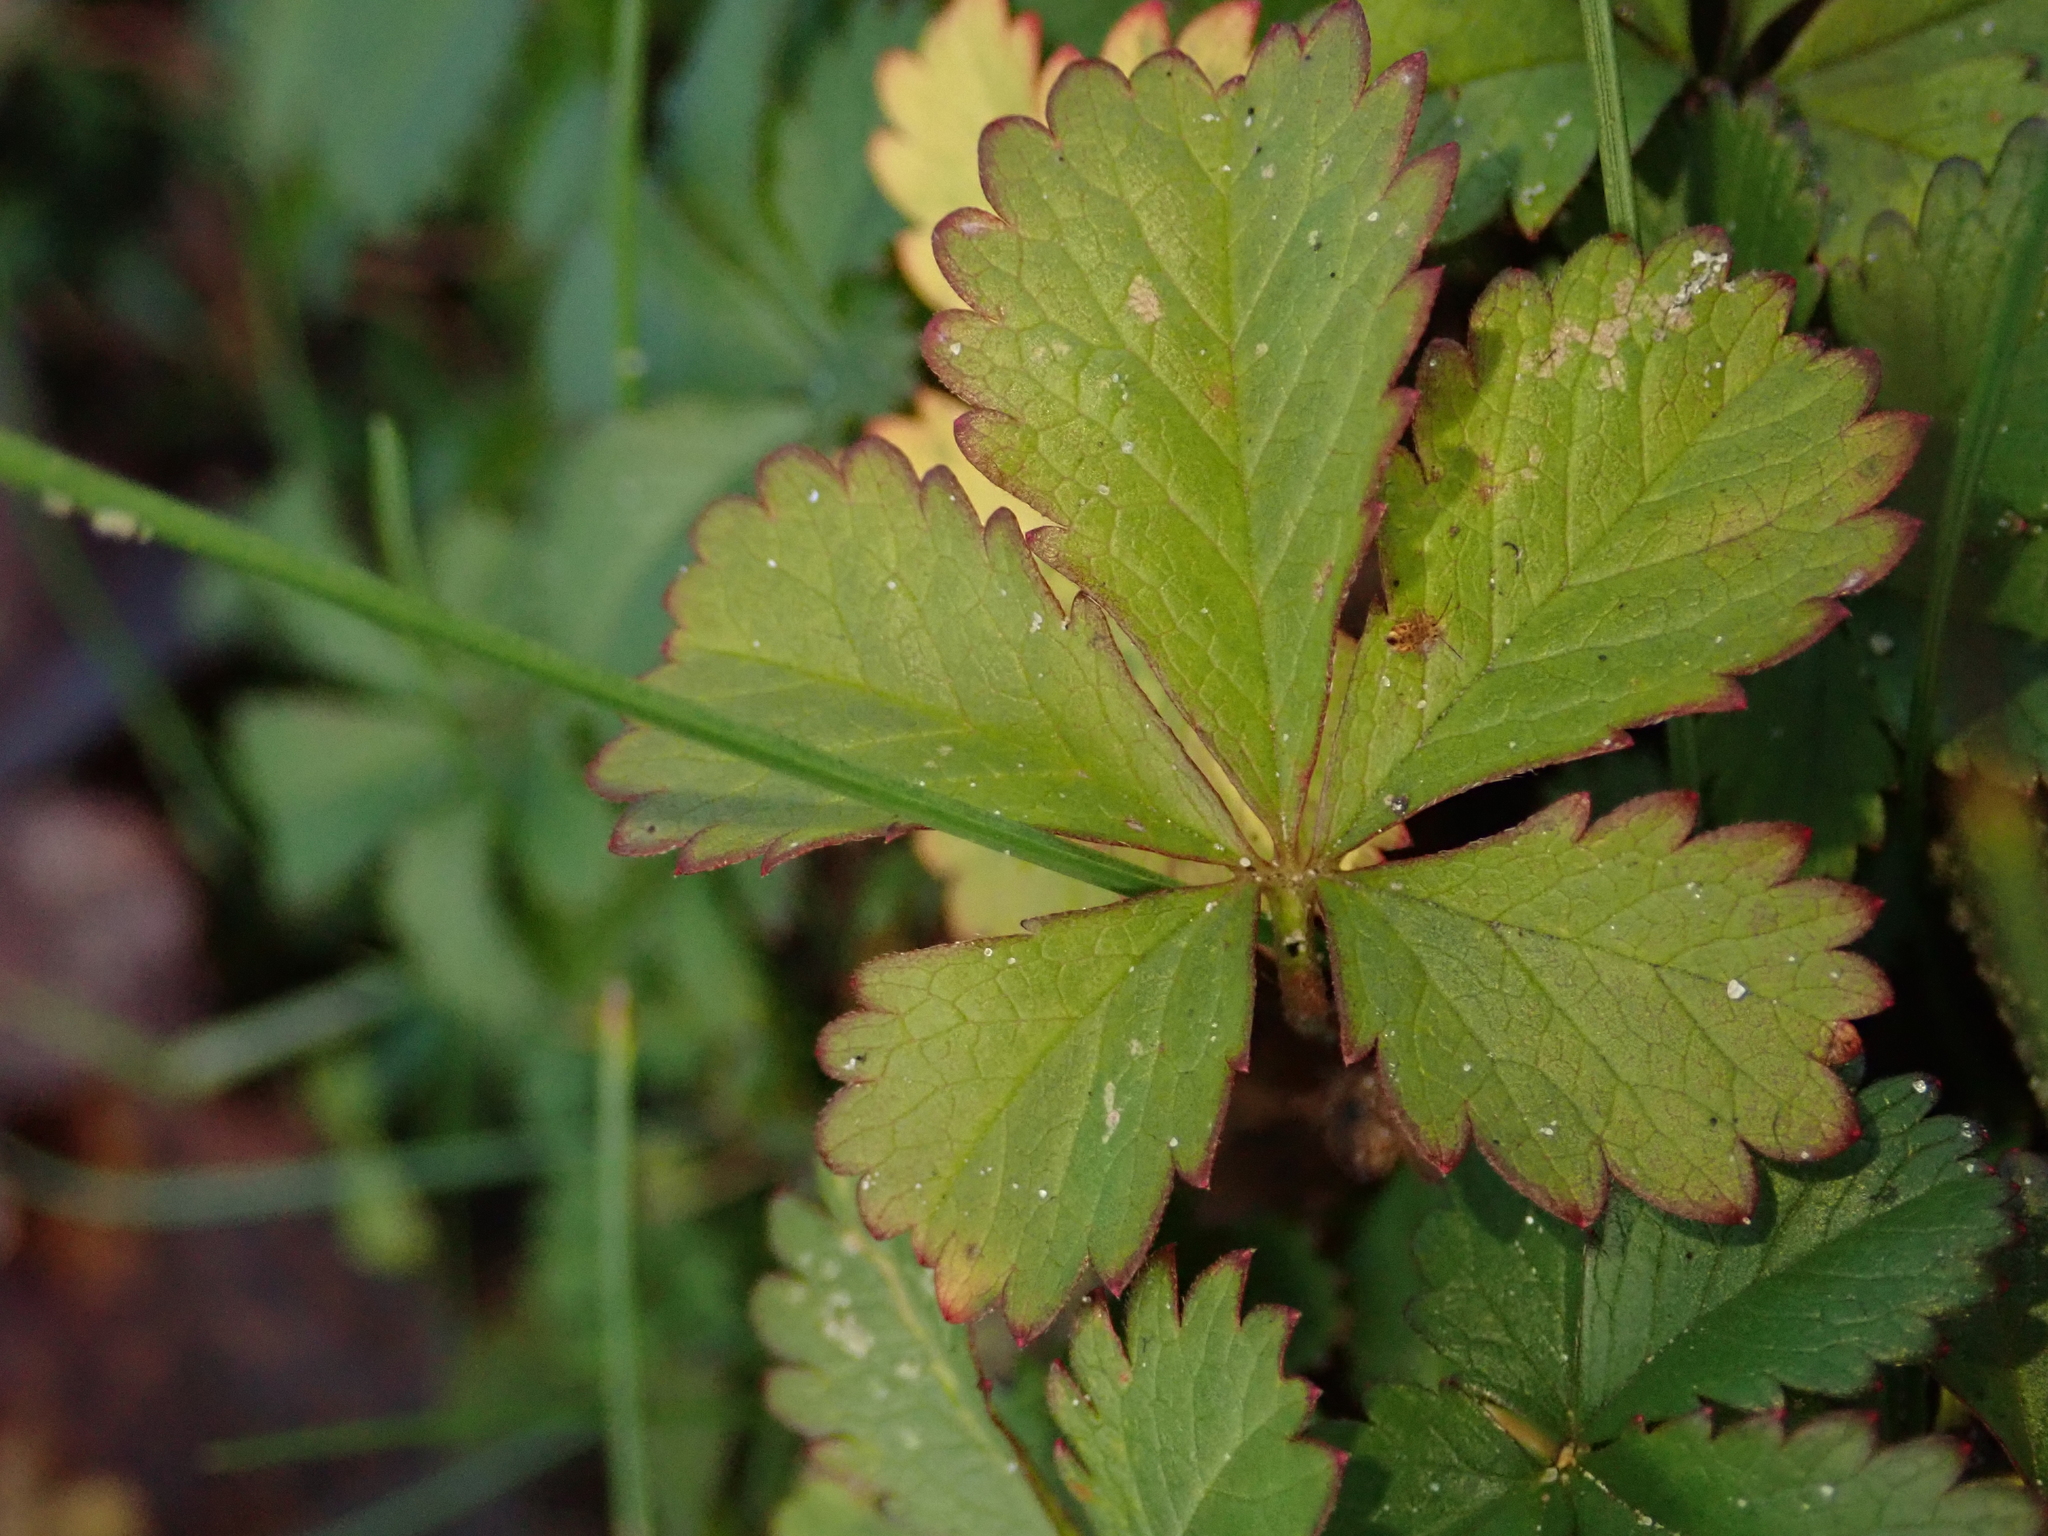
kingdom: Plantae
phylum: Tracheophyta
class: Magnoliopsida
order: Rosales
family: Rosaceae
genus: Potentilla
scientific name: Potentilla reptans
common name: Creeping cinquefoil
